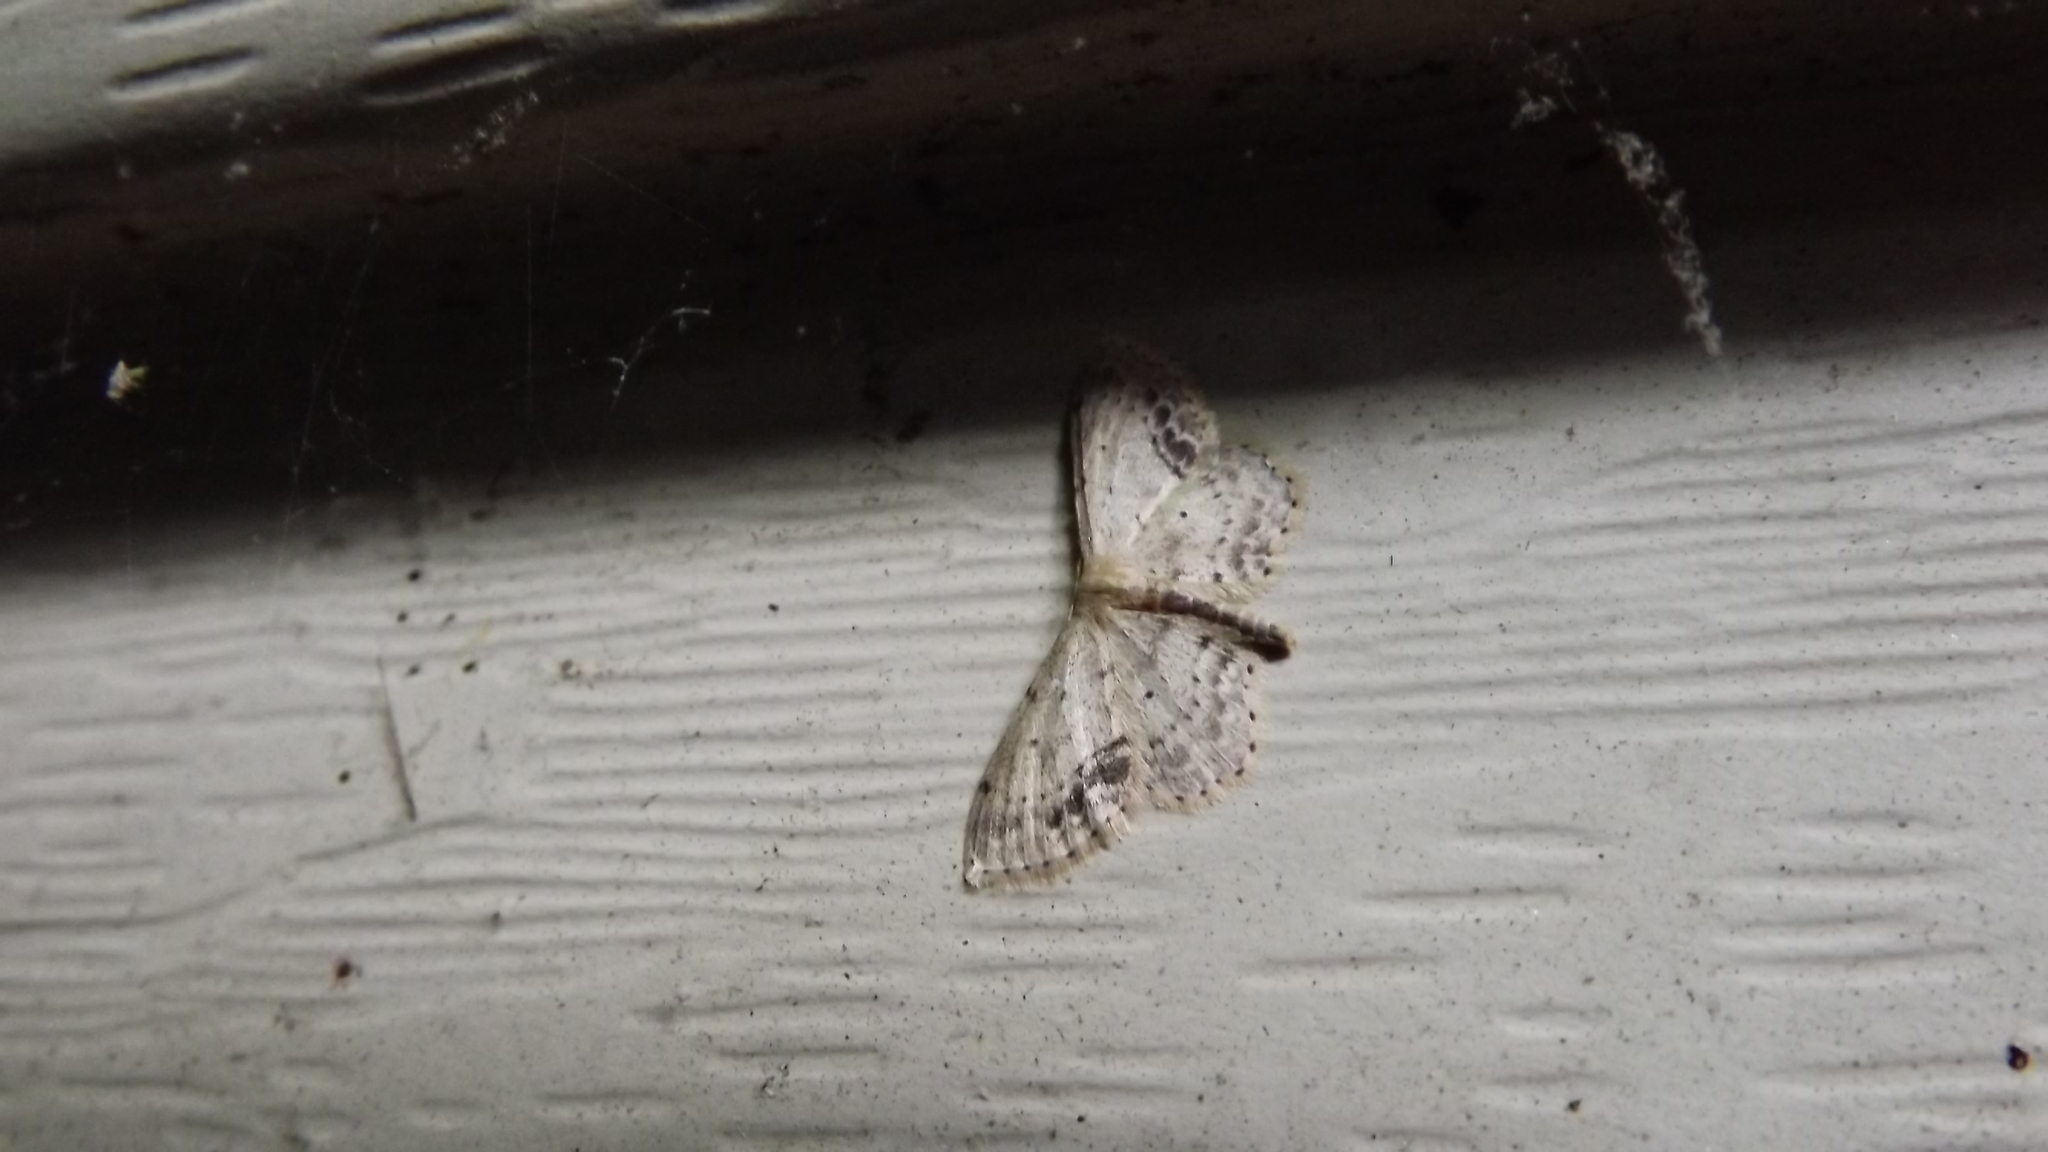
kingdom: Animalia
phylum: Arthropoda
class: Insecta
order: Lepidoptera
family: Geometridae
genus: Idaea
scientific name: Idaea dimidiata
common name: Single-dotted wave
